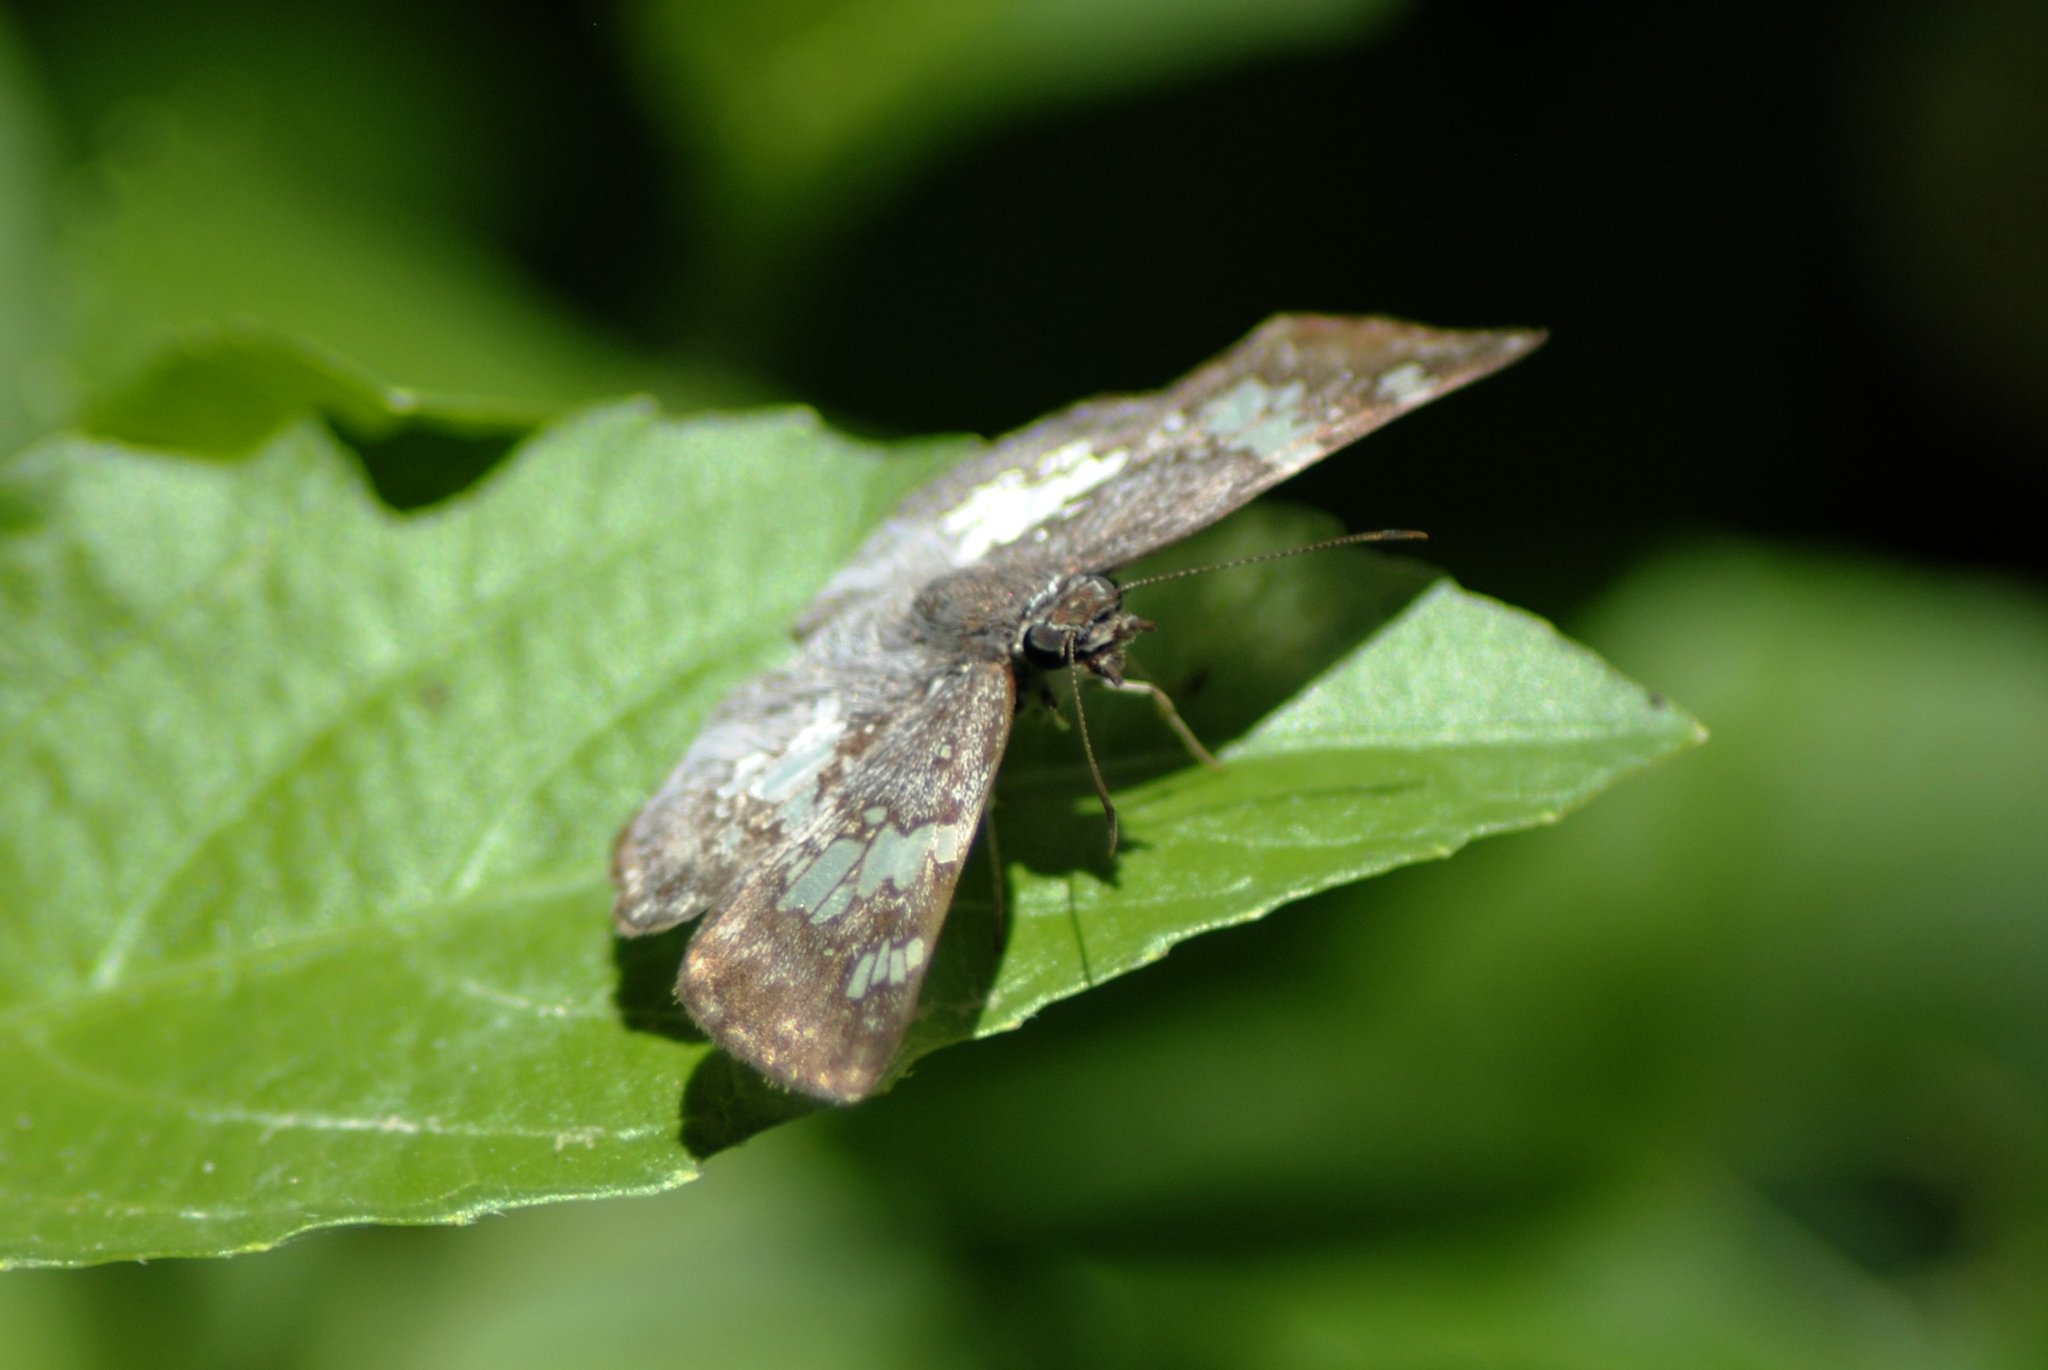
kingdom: Animalia
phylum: Arthropoda
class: Insecta
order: Lepidoptera
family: Hesperiidae
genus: Xenophanes
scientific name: Xenophanes tryxus
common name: Glassy-winged skipper
